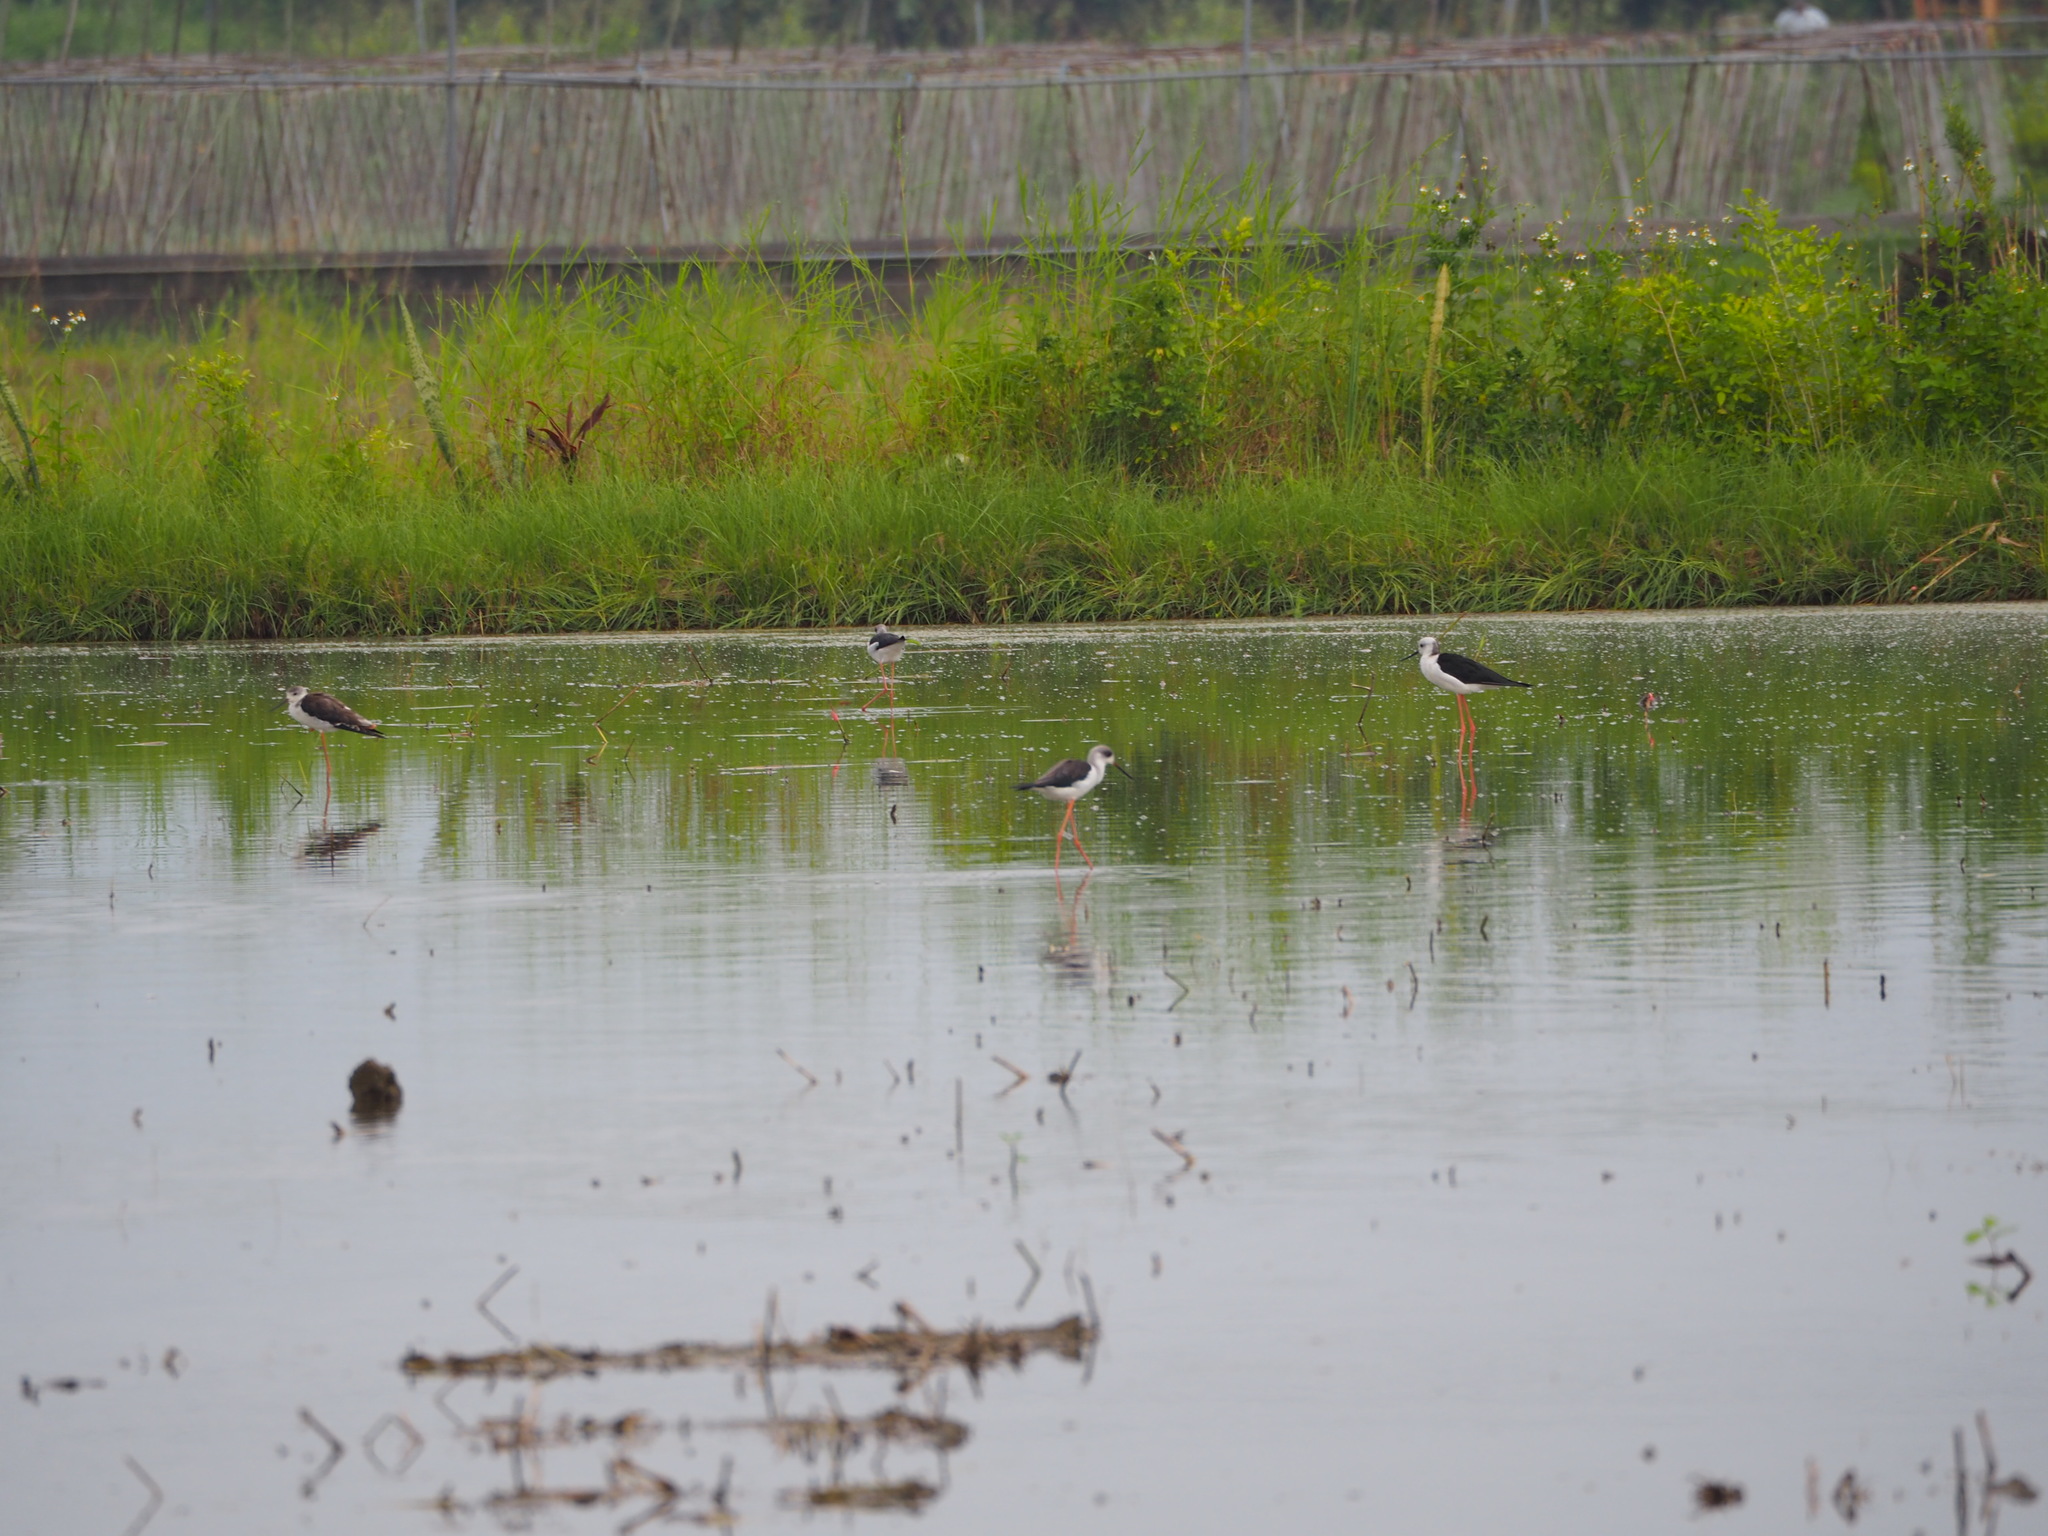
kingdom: Animalia
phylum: Chordata
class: Aves
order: Charadriiformes
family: Recurvirostridae
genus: Himantopus
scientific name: Himantopus himantopus
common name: Black-winged stilt
